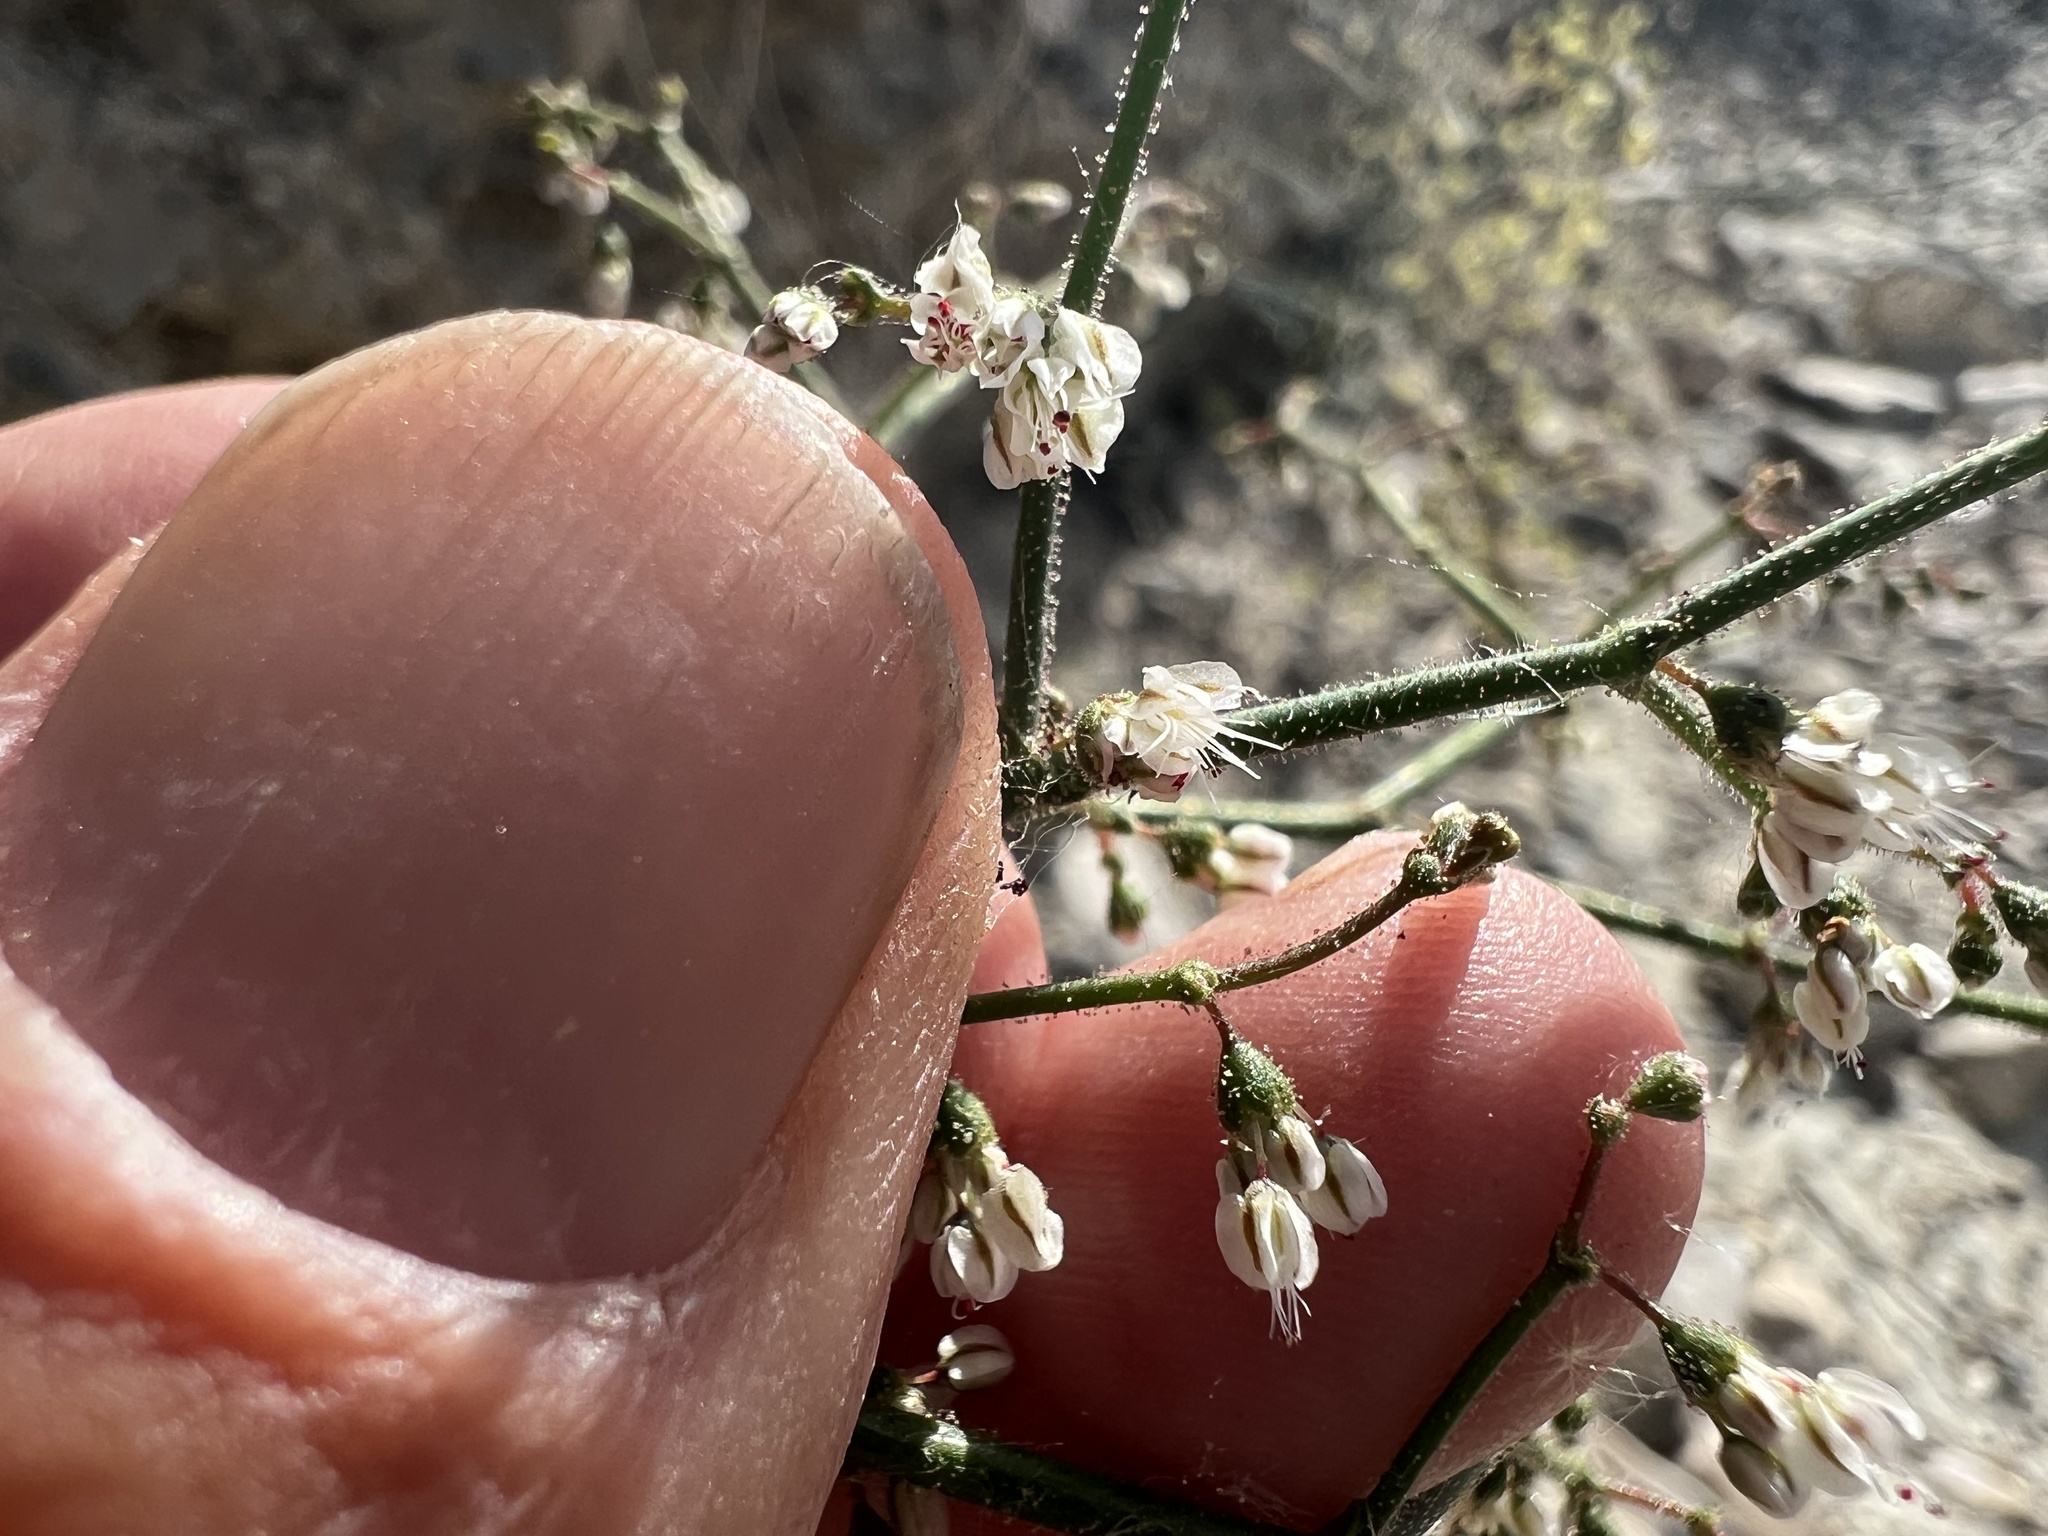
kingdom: Plantae
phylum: Tracheophyta
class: Magnoliopsida
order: Caryophyllales
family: Polygonaceae
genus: Eriogonum
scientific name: Eriogonum brachypodum
